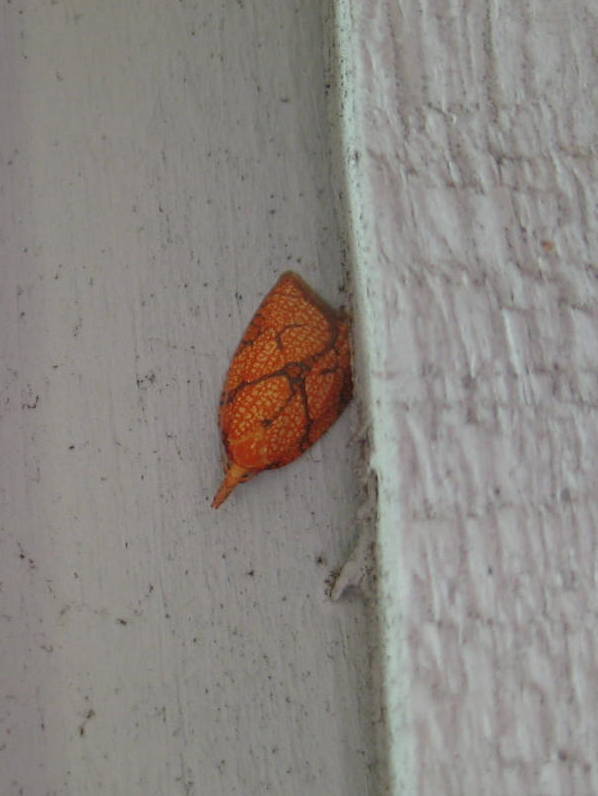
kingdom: Animalia
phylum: Arthropoda
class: Insecta
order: Lepidoptera
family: Tortricidae
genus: Cenopis
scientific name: Cenopis reticulatana
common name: Reticulated fruitworm moth
